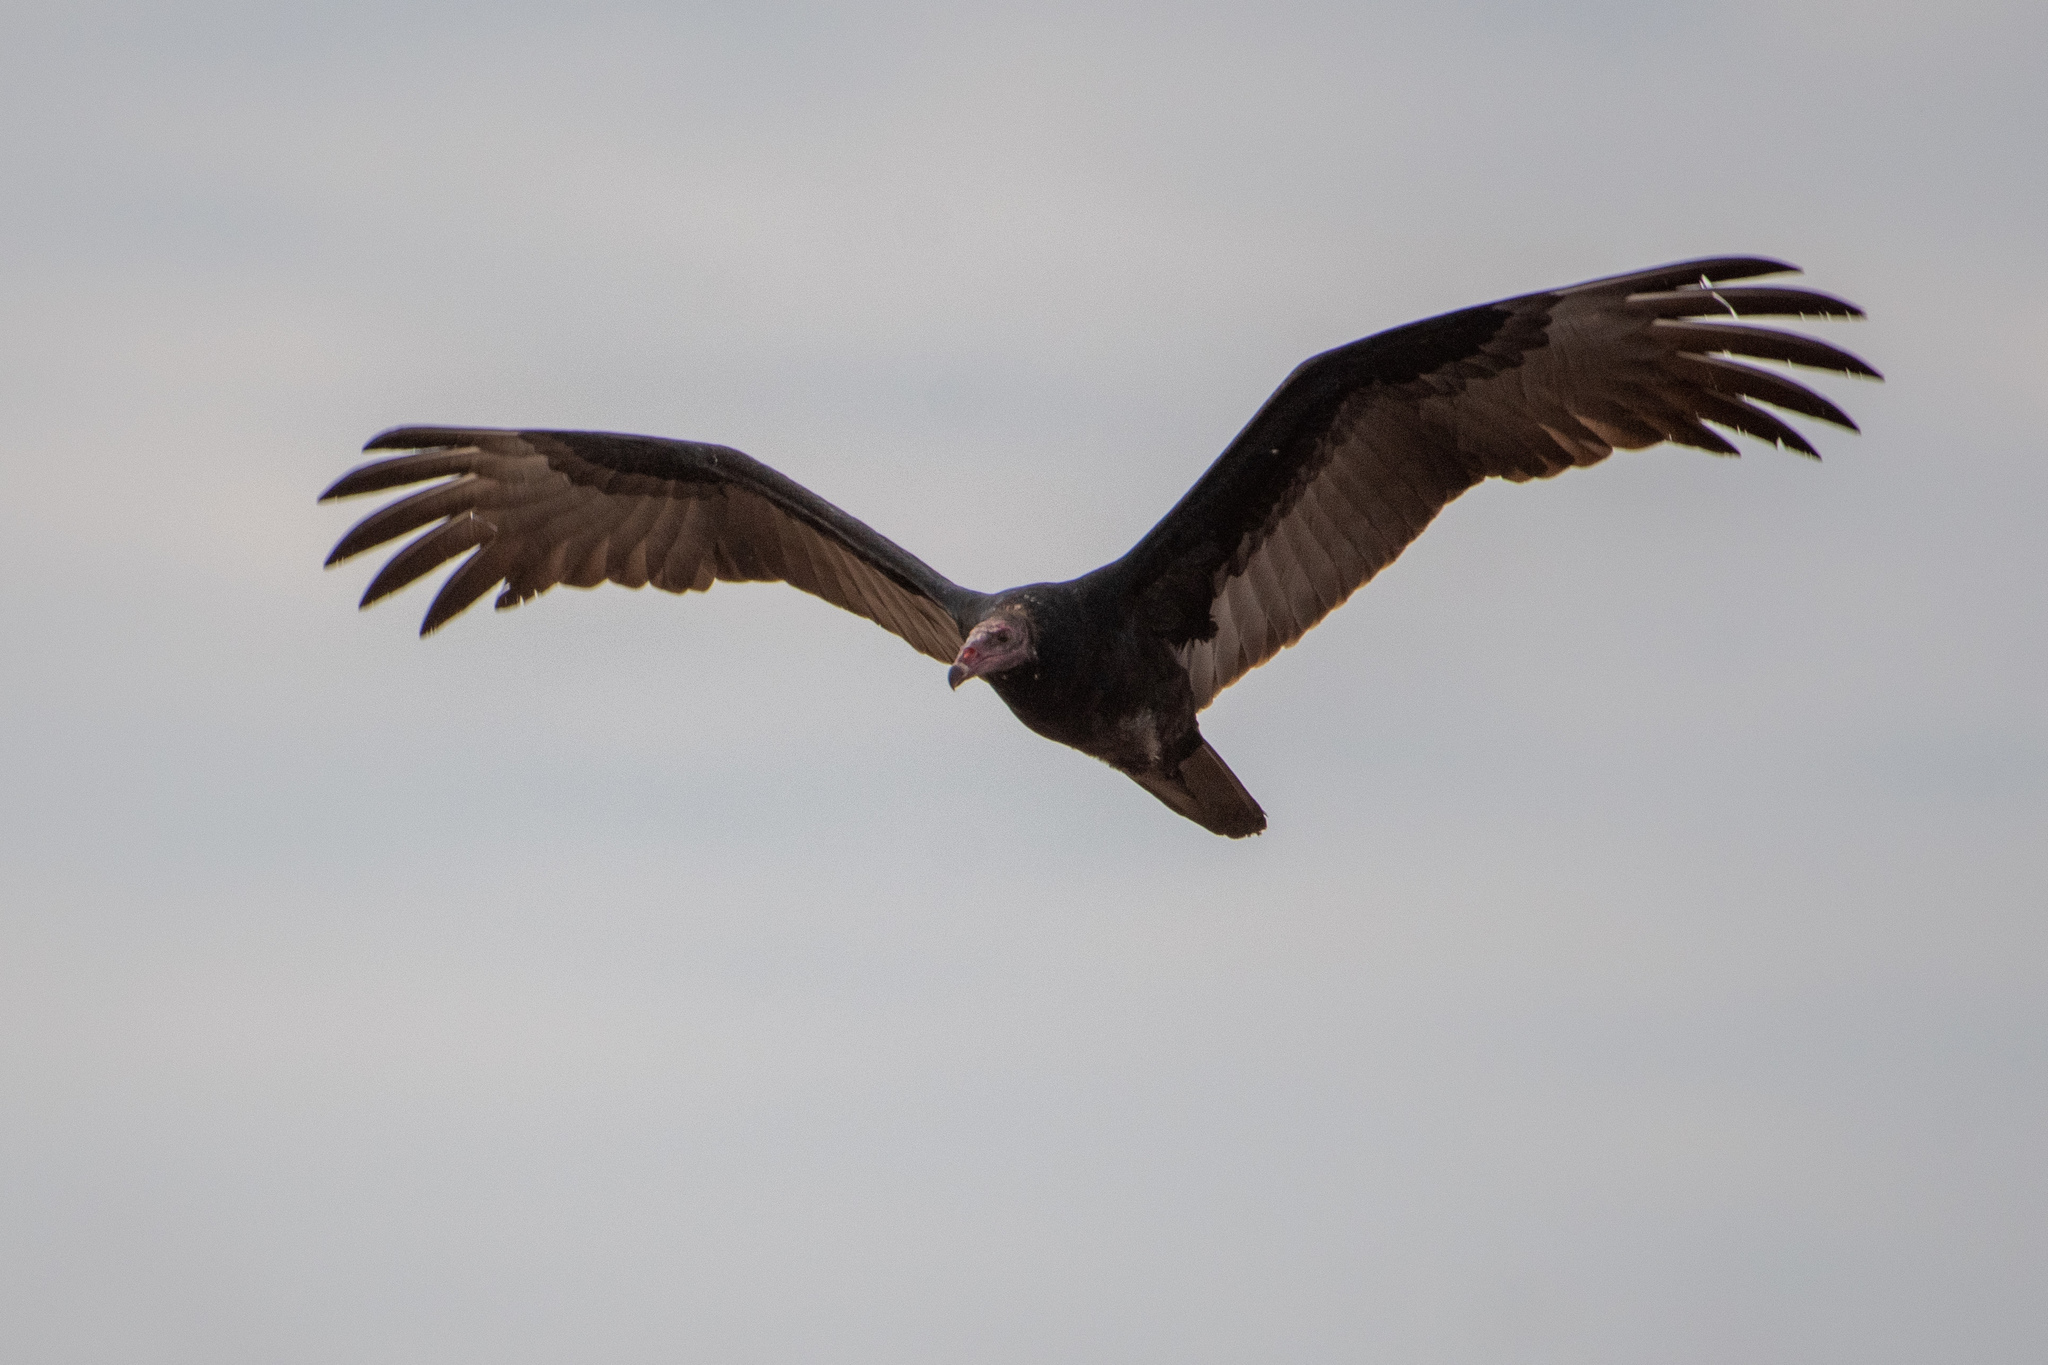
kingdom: Animalia
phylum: Chordata
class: Aves
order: Accipitriformes
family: Cathartidae
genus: Cathartes
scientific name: Cathartes aura
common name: Turkey vulture
